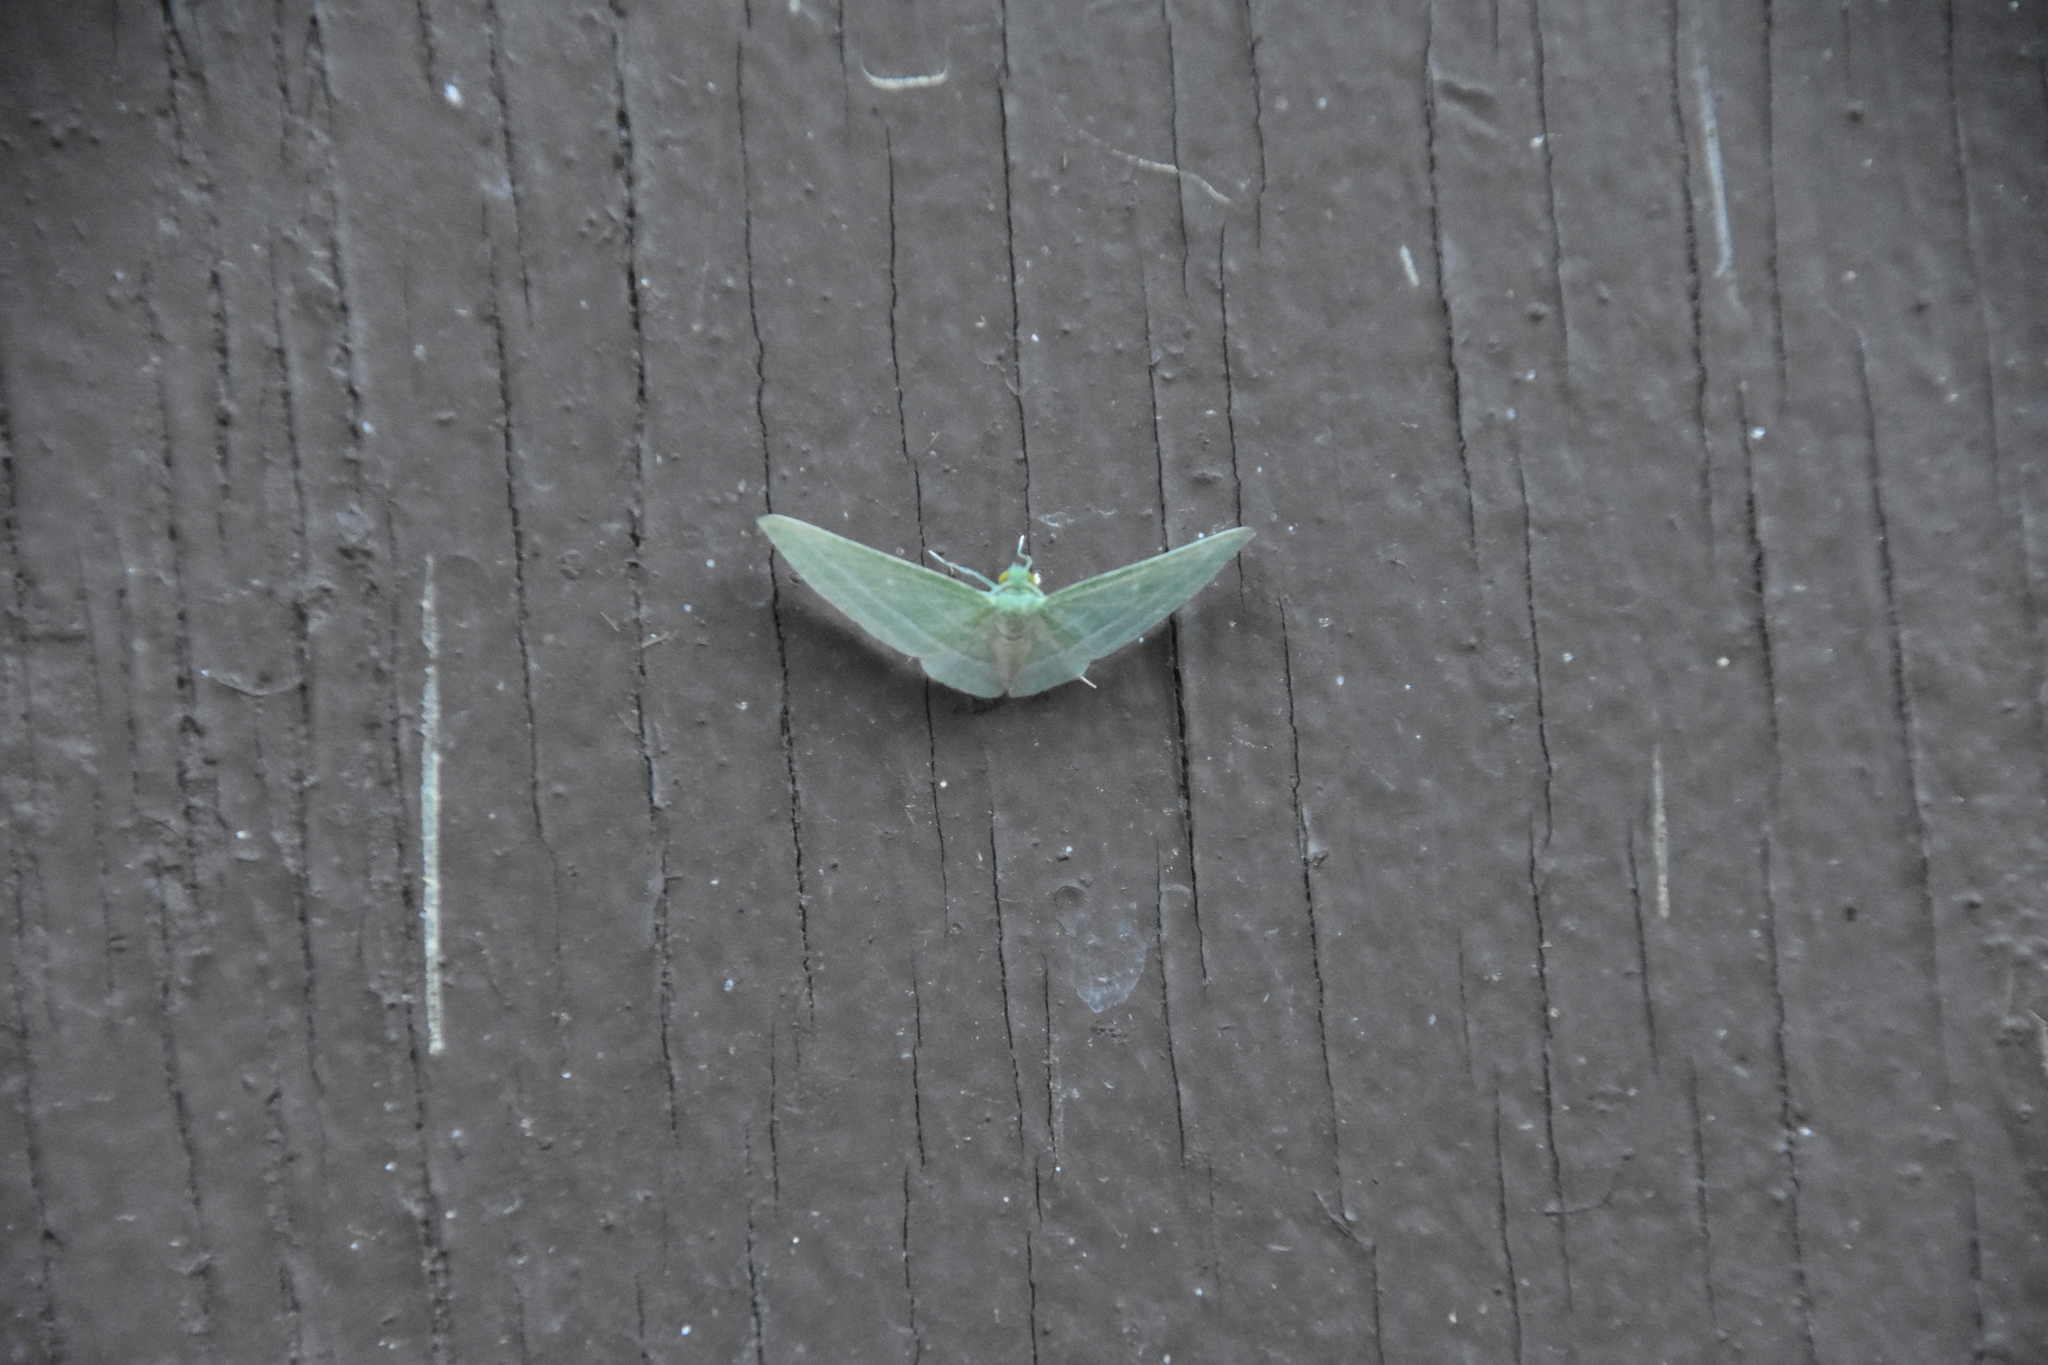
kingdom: Animalia
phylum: Arthropoda
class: Insecta
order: Lepidoptera
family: Geometridae
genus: Dyspteris
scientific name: Dyspteris abortivaria
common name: Bad-wing
